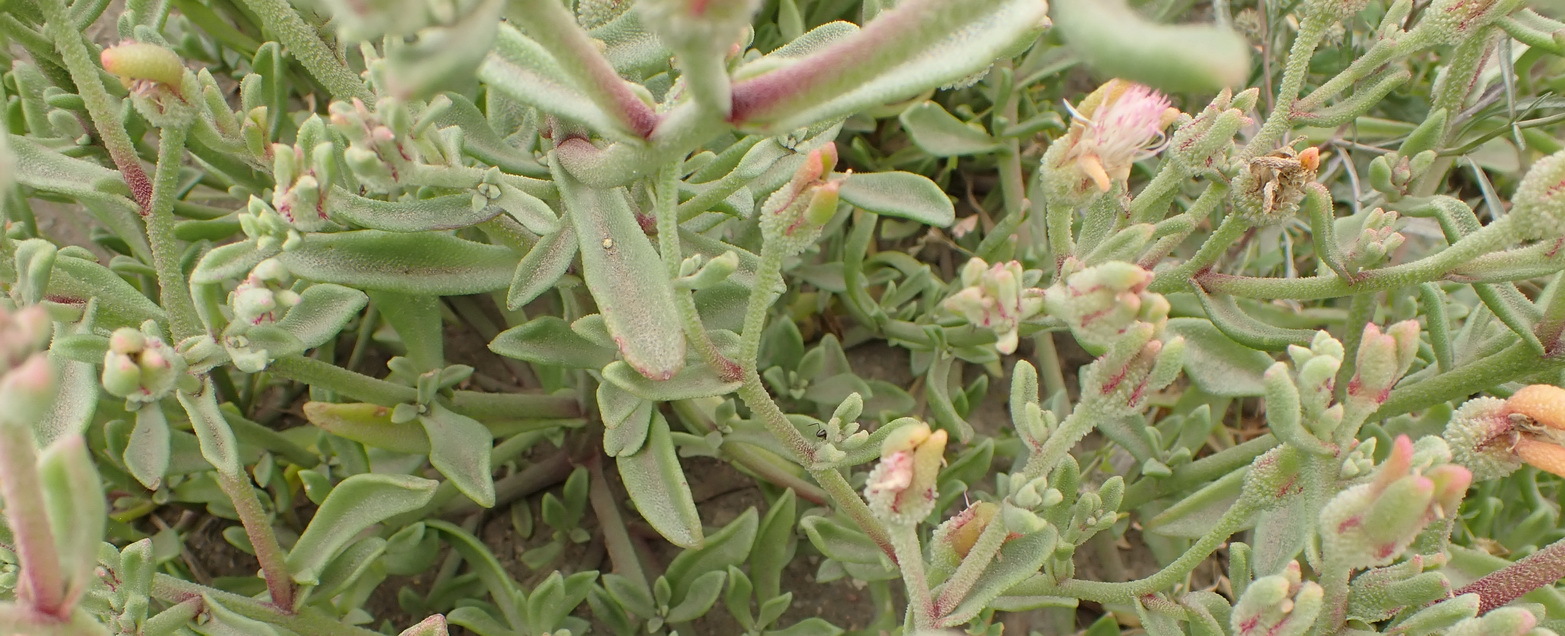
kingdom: Plantae
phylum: Tracheophyta
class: Magnoliopsida
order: Caryophyllales
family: Aizoaceae
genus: Mesembryanthemum
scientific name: Mesembryanthemum aitonis
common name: Angled iceplant
